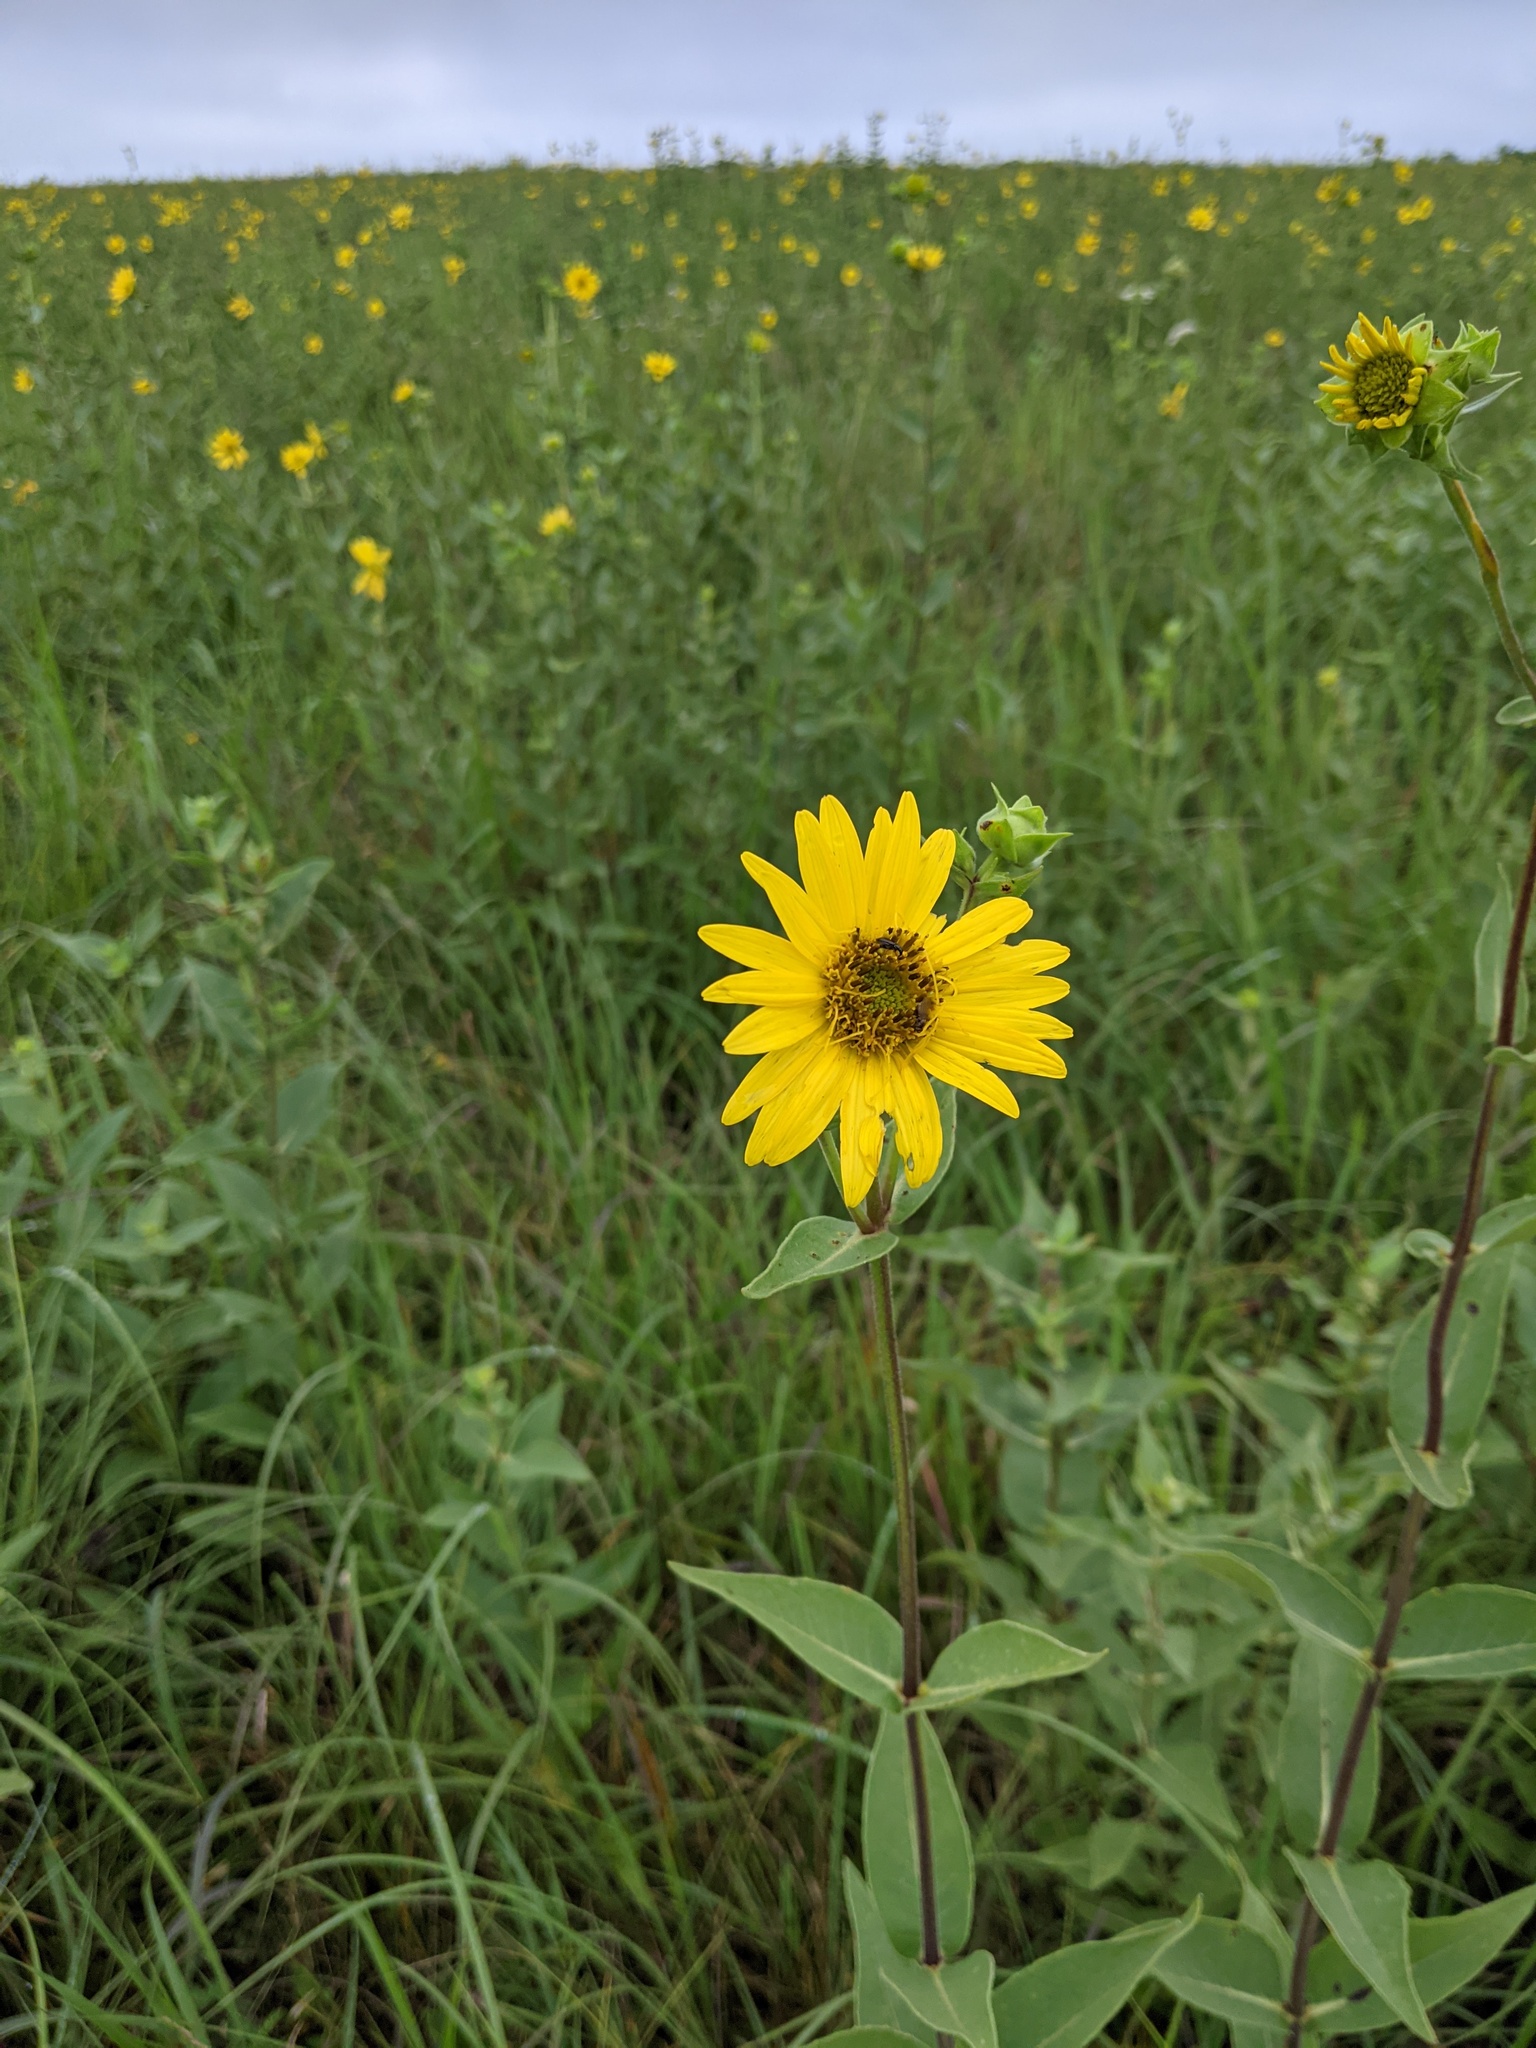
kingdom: Plantae
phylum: Tracheophyta
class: Magnoliopsida
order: Asterales
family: Asteraceae
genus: Silphium
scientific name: Silphium integrifolium
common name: Whole-leaf rosinweed
